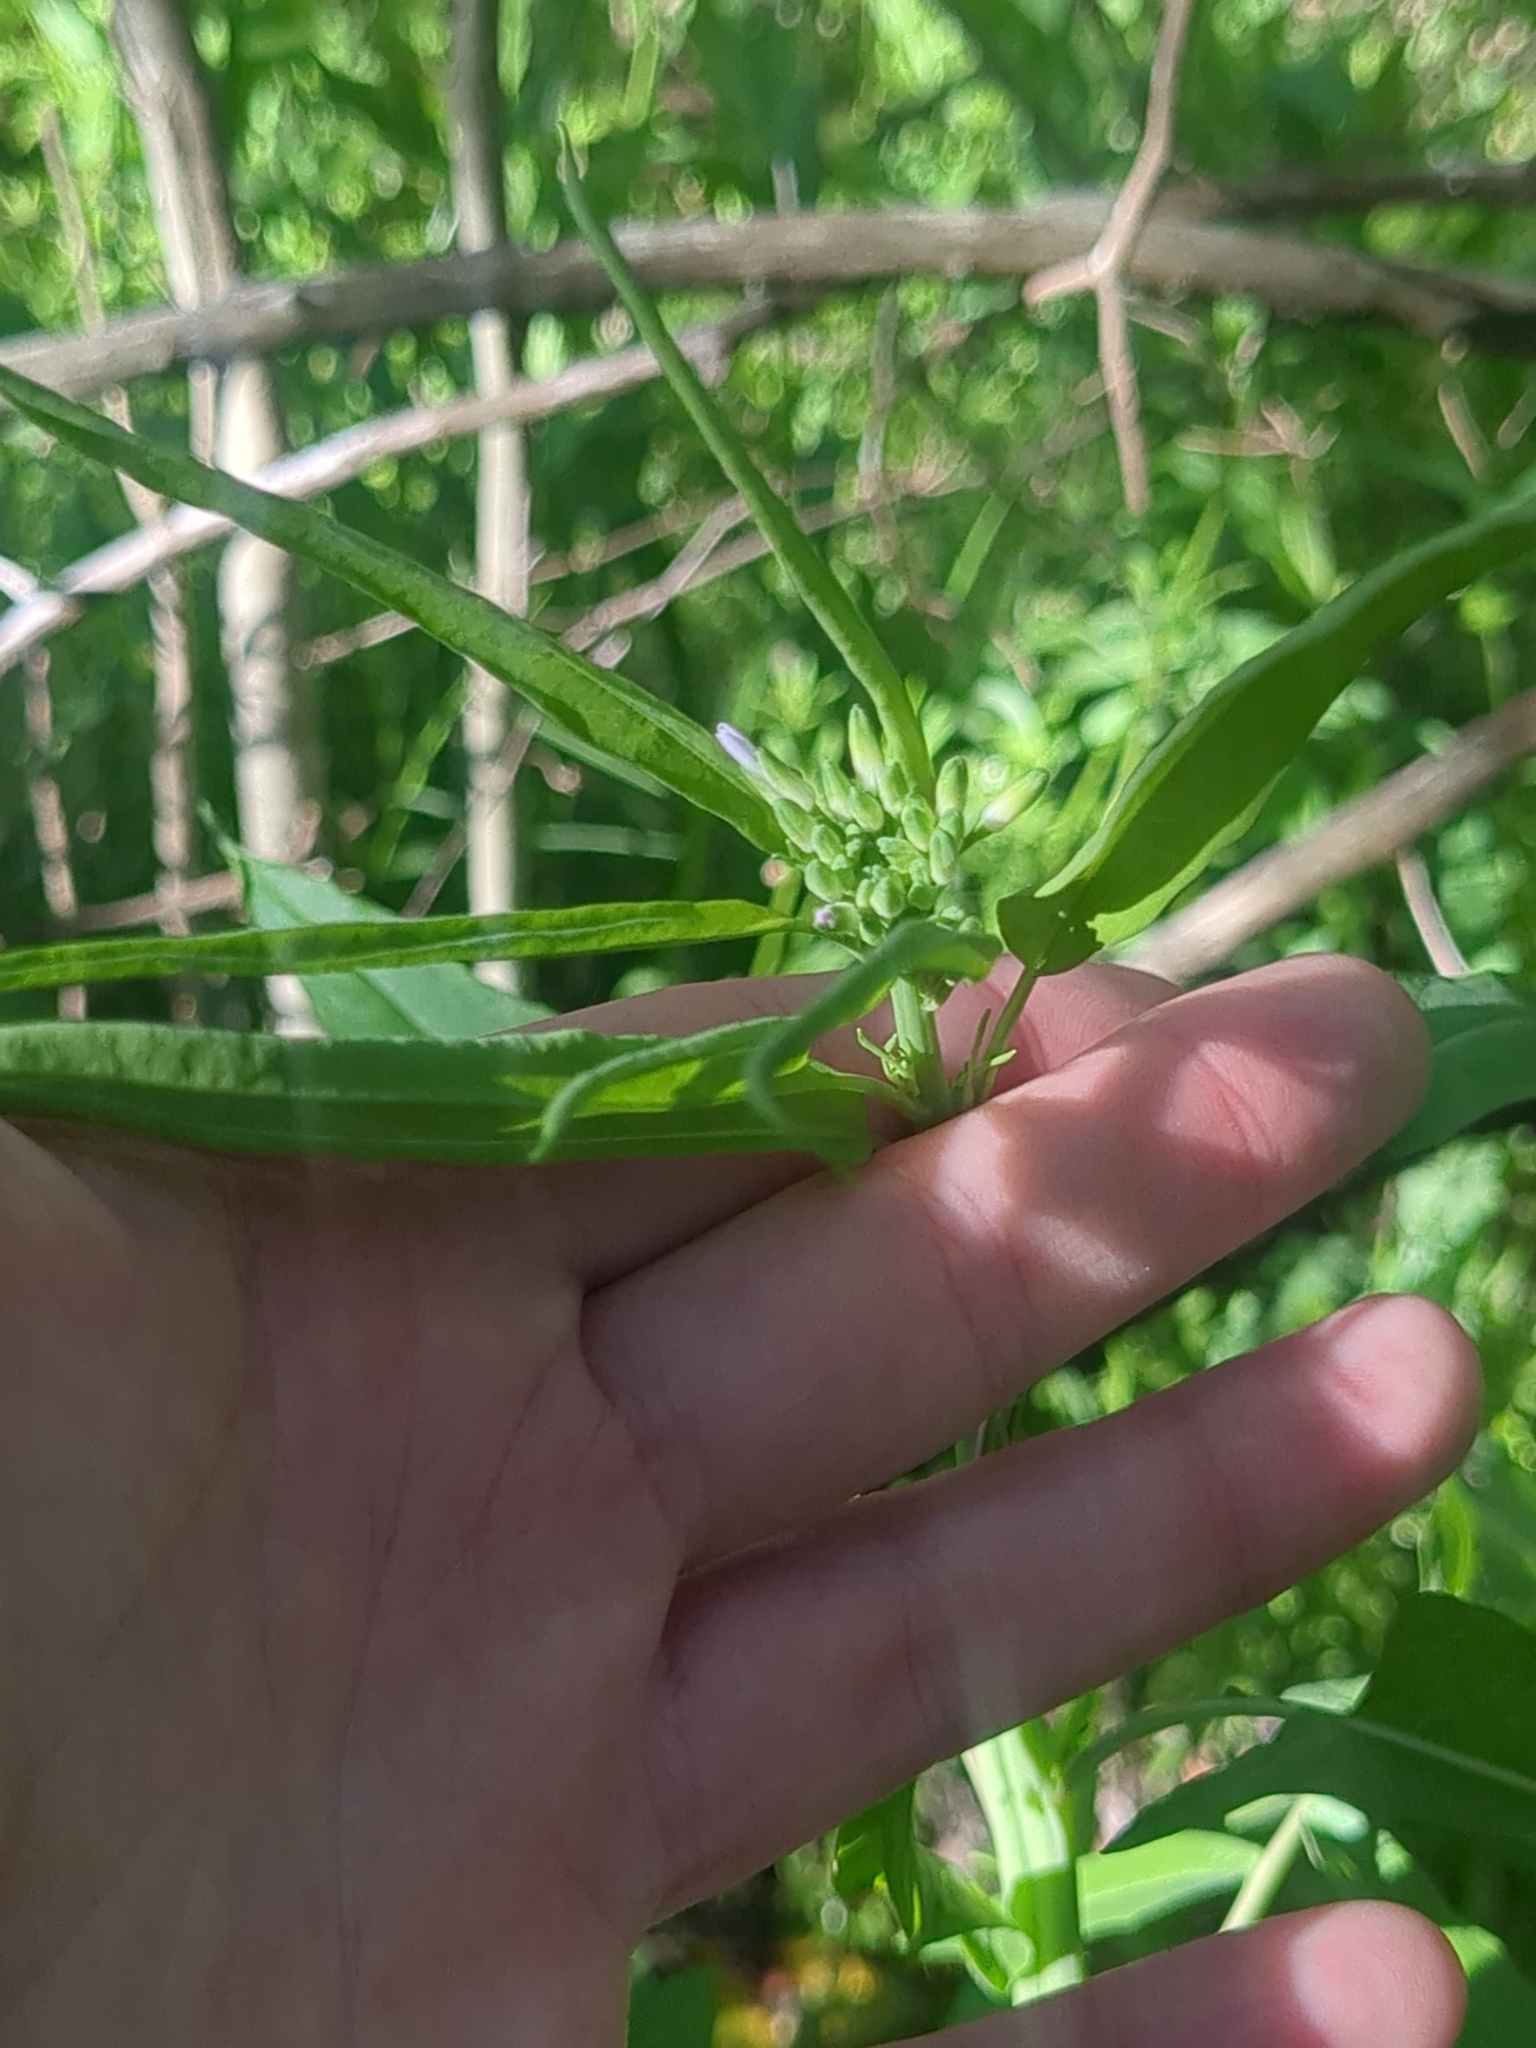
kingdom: Plantae
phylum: Tracheophyta
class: Magnoliopsida
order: Brassicales
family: Brassicaceae
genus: Streptanthus
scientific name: Streptanthus petiolaris
